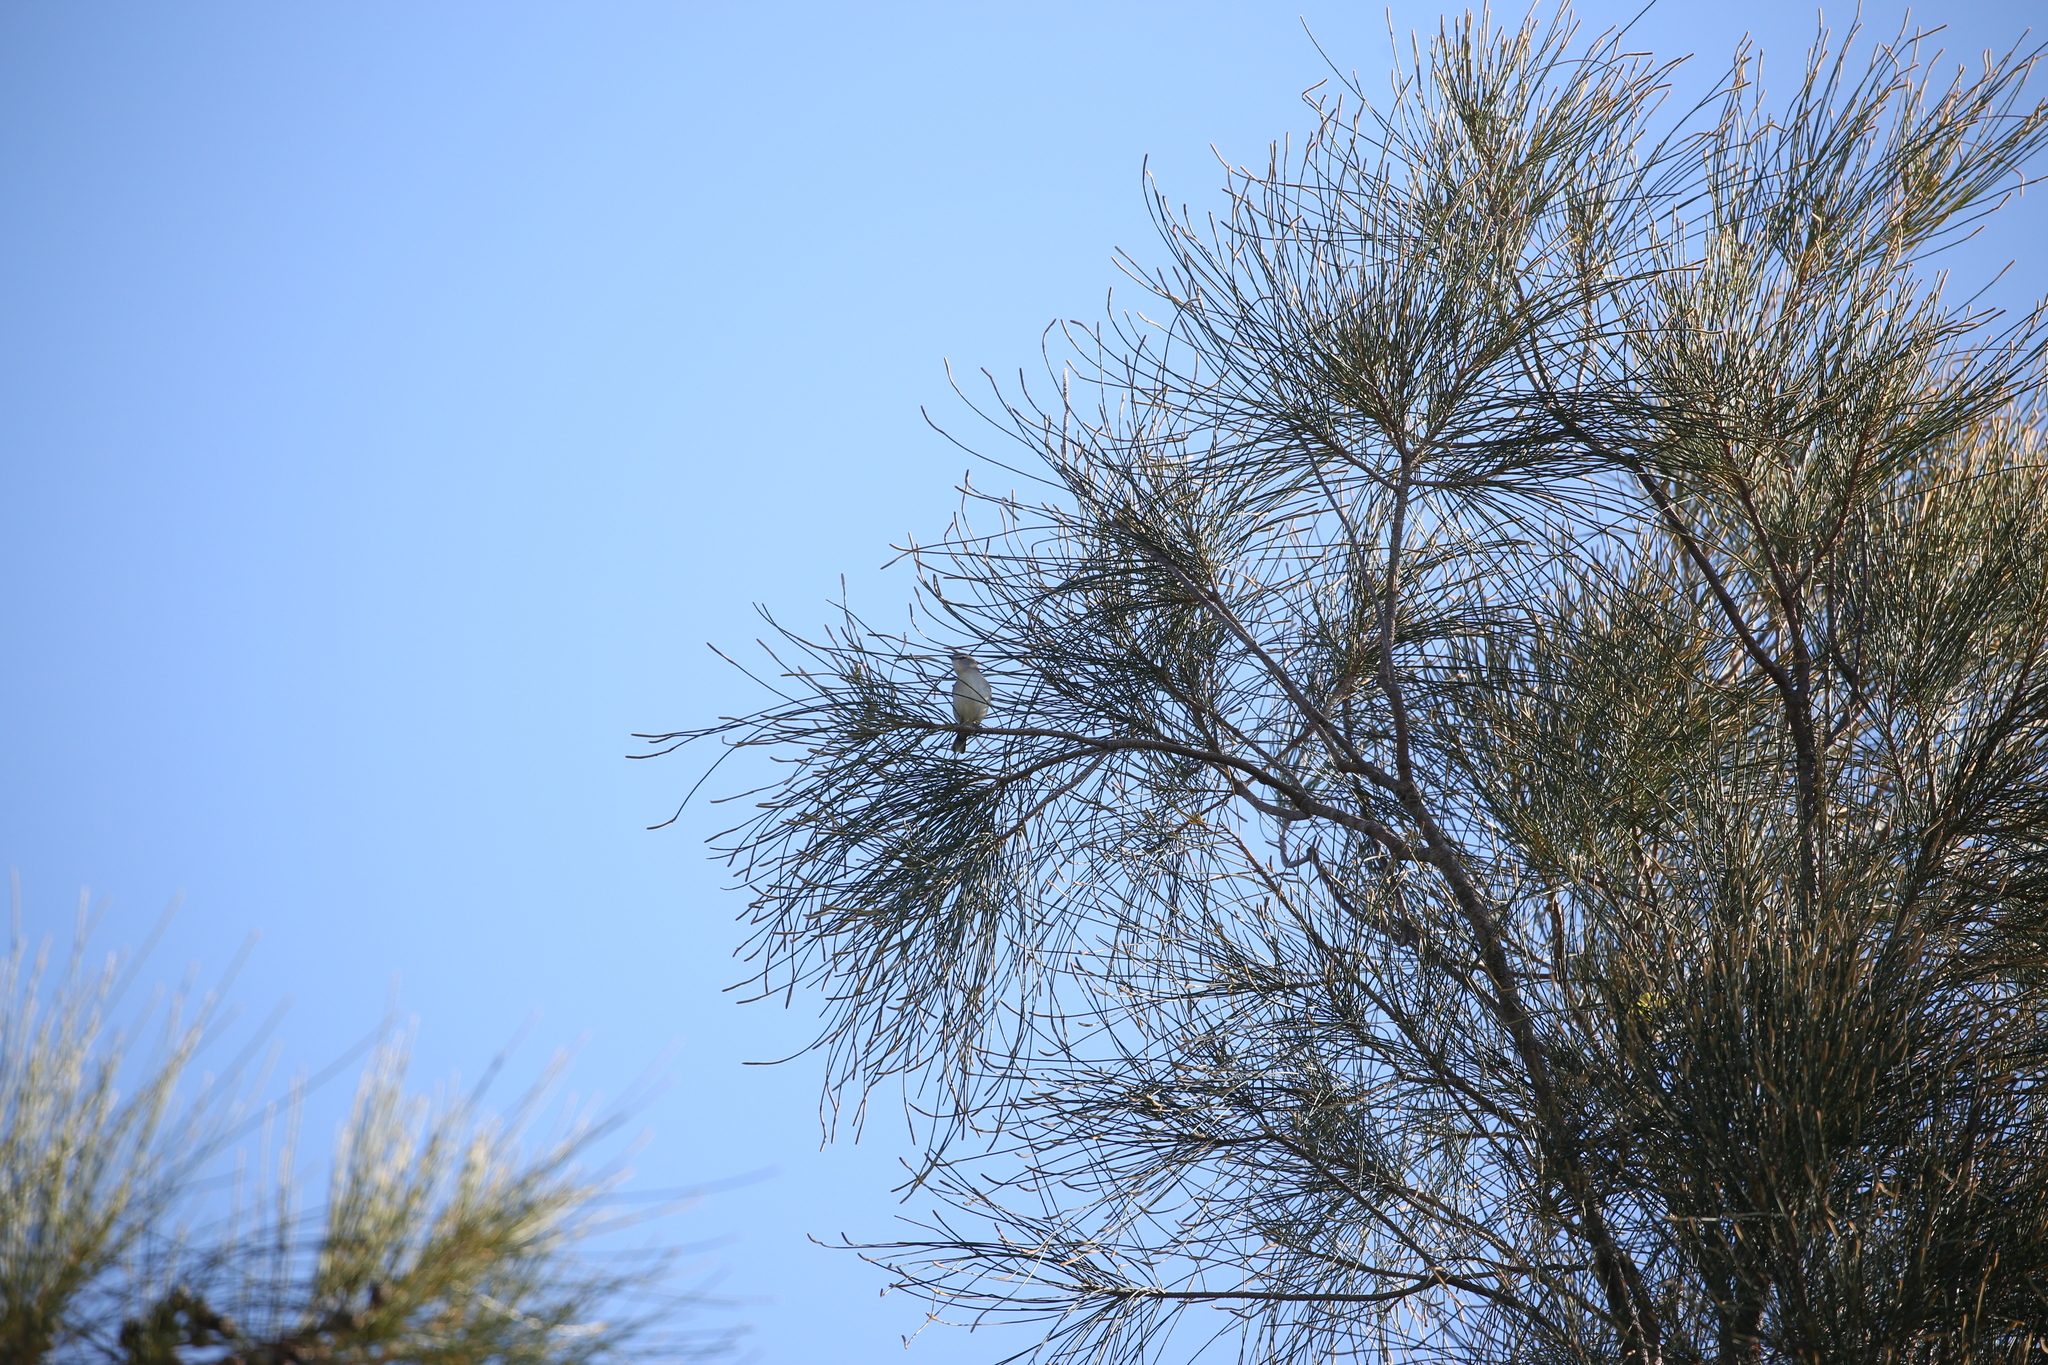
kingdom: Animalia
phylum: Chordata
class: Aves
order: Passeriformes
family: Acanthizidae
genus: Gerygone
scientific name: Gerygone levigaster
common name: Mangrove gerygone
